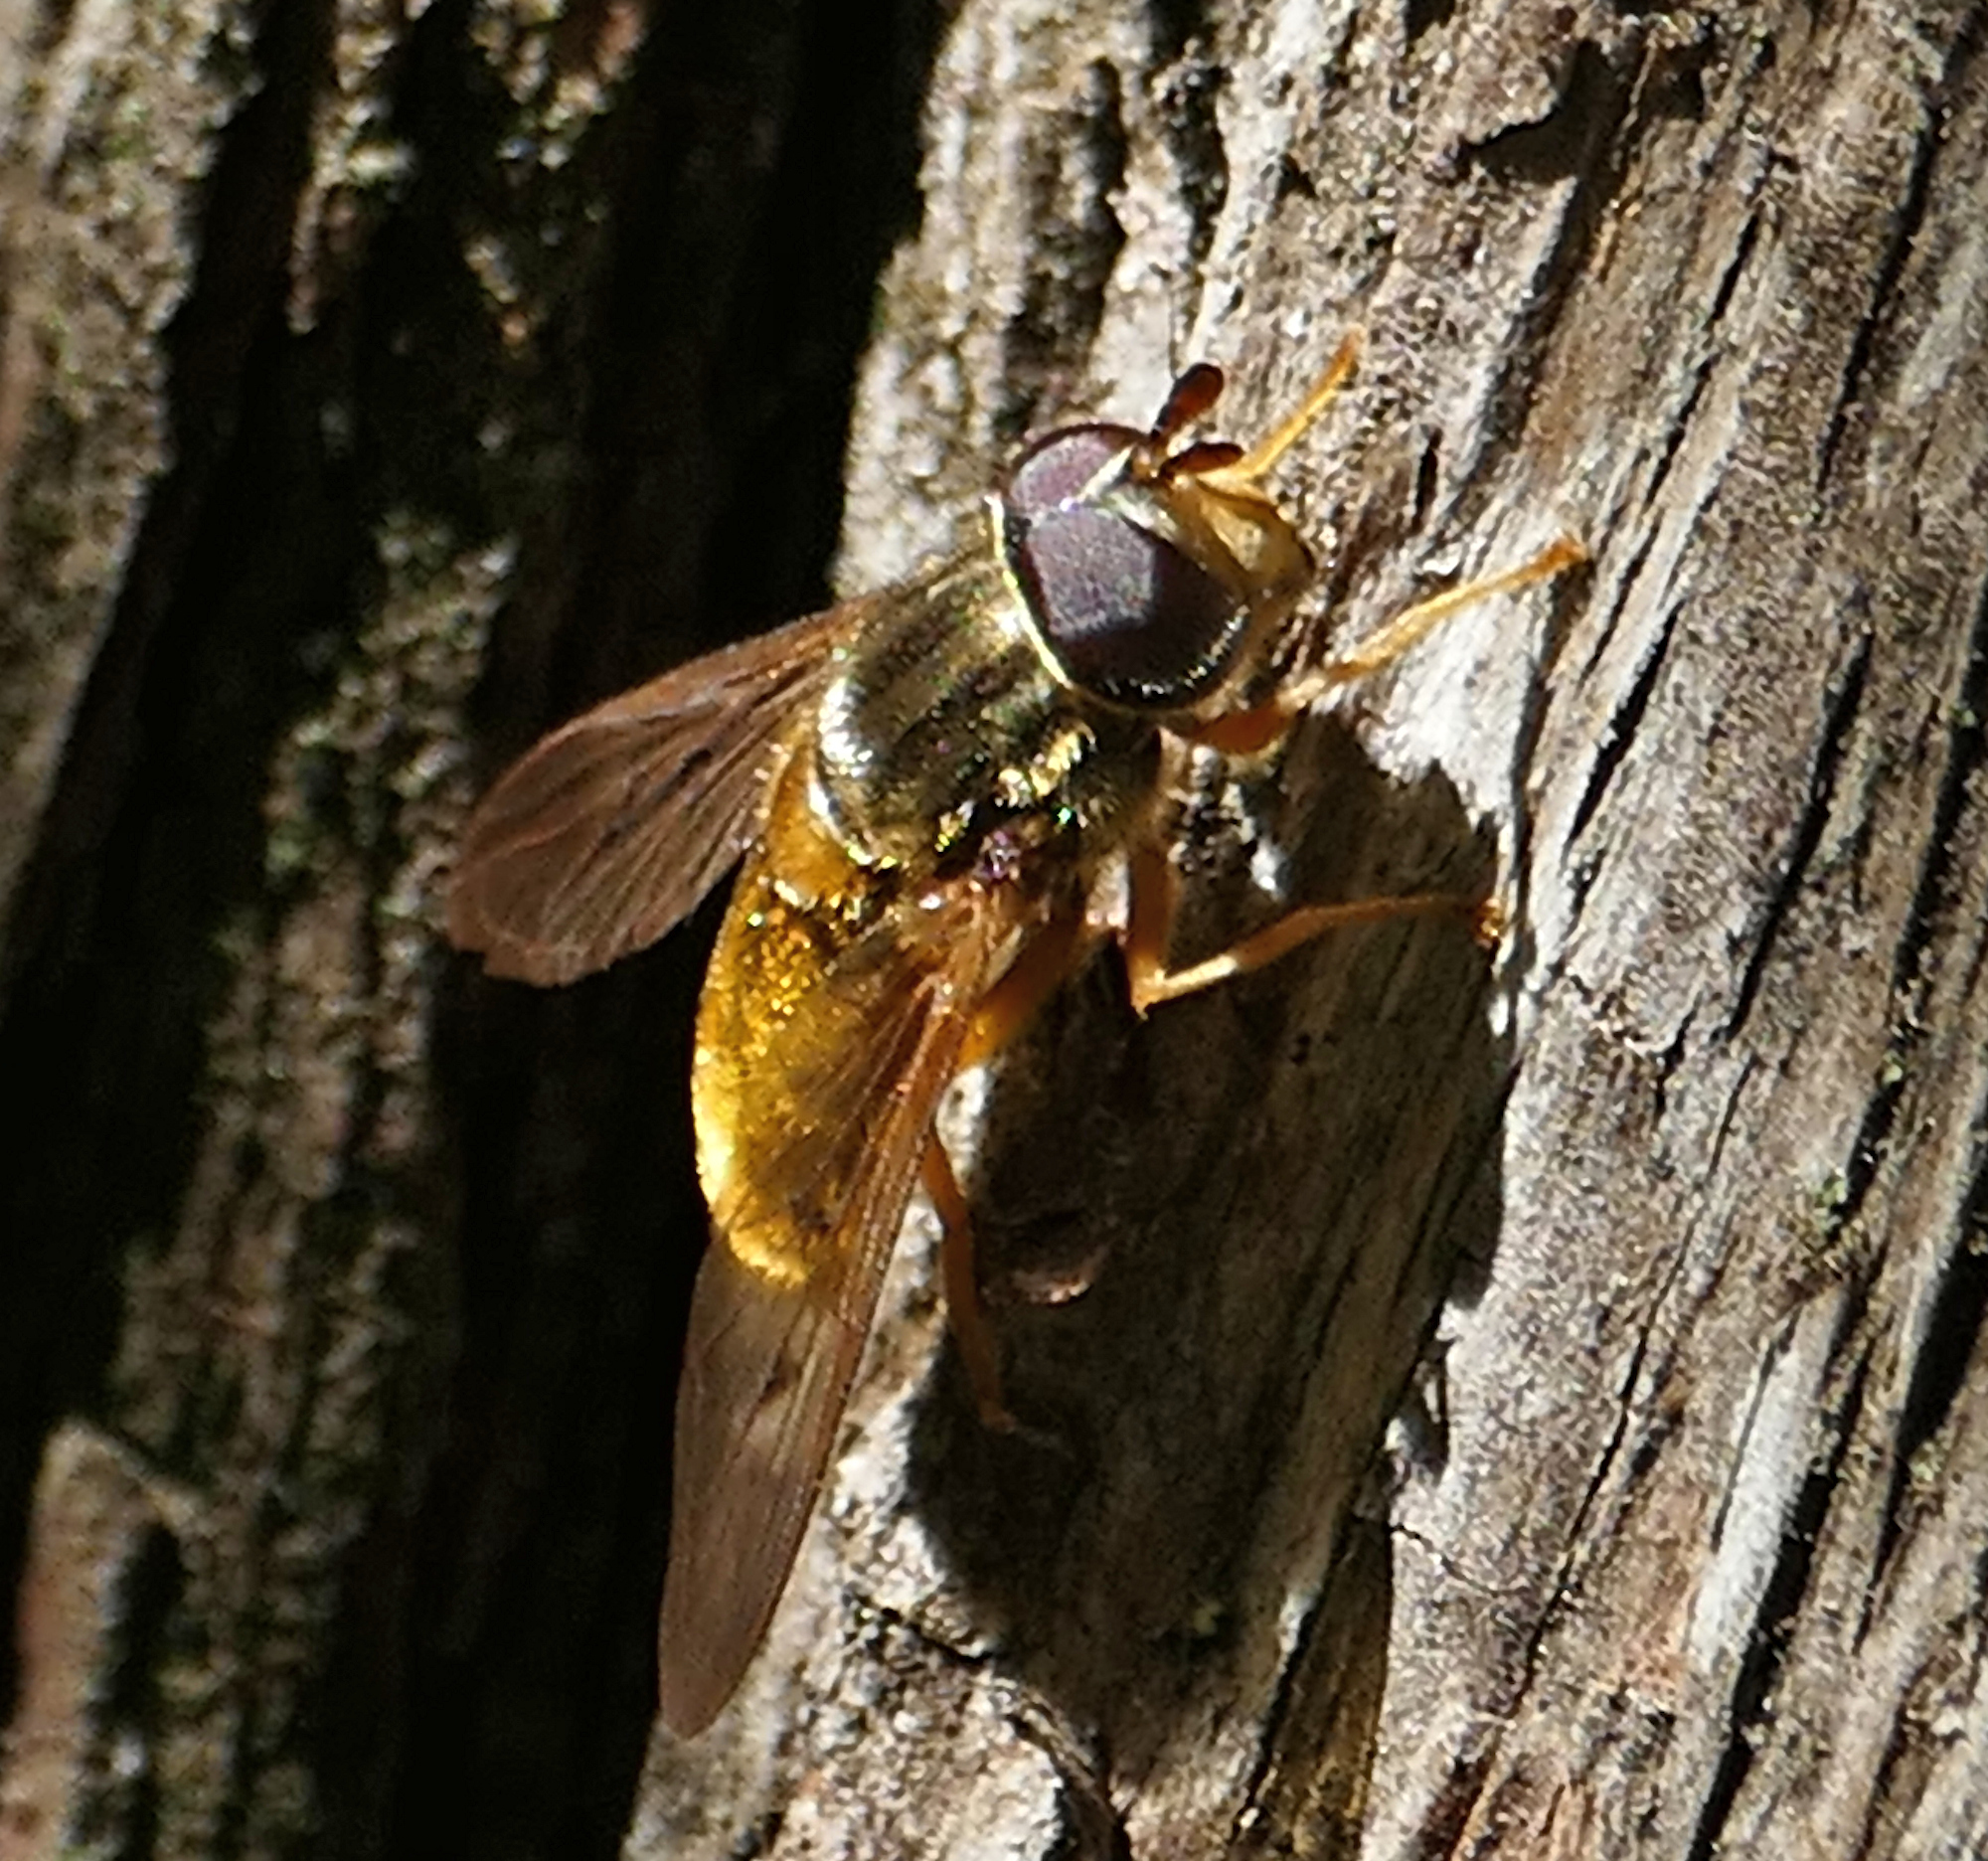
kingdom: Animalia
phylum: Arthropoda
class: Insecta
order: Diptera
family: Syrphidae
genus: Ferdinandea
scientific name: Ferdinandea croesus
